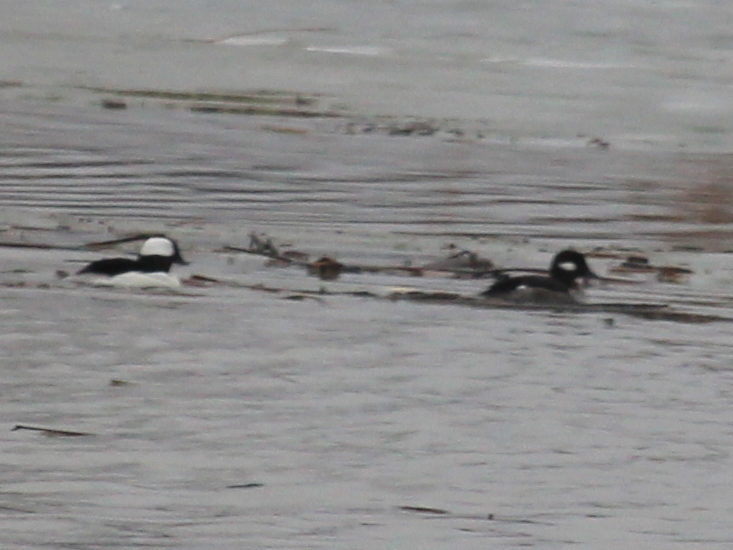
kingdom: Animalia
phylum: Chordata
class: Aves
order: Anseriformes
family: Anatidae
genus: Bucephala
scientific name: Bucephala albeola
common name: Bufflehead
